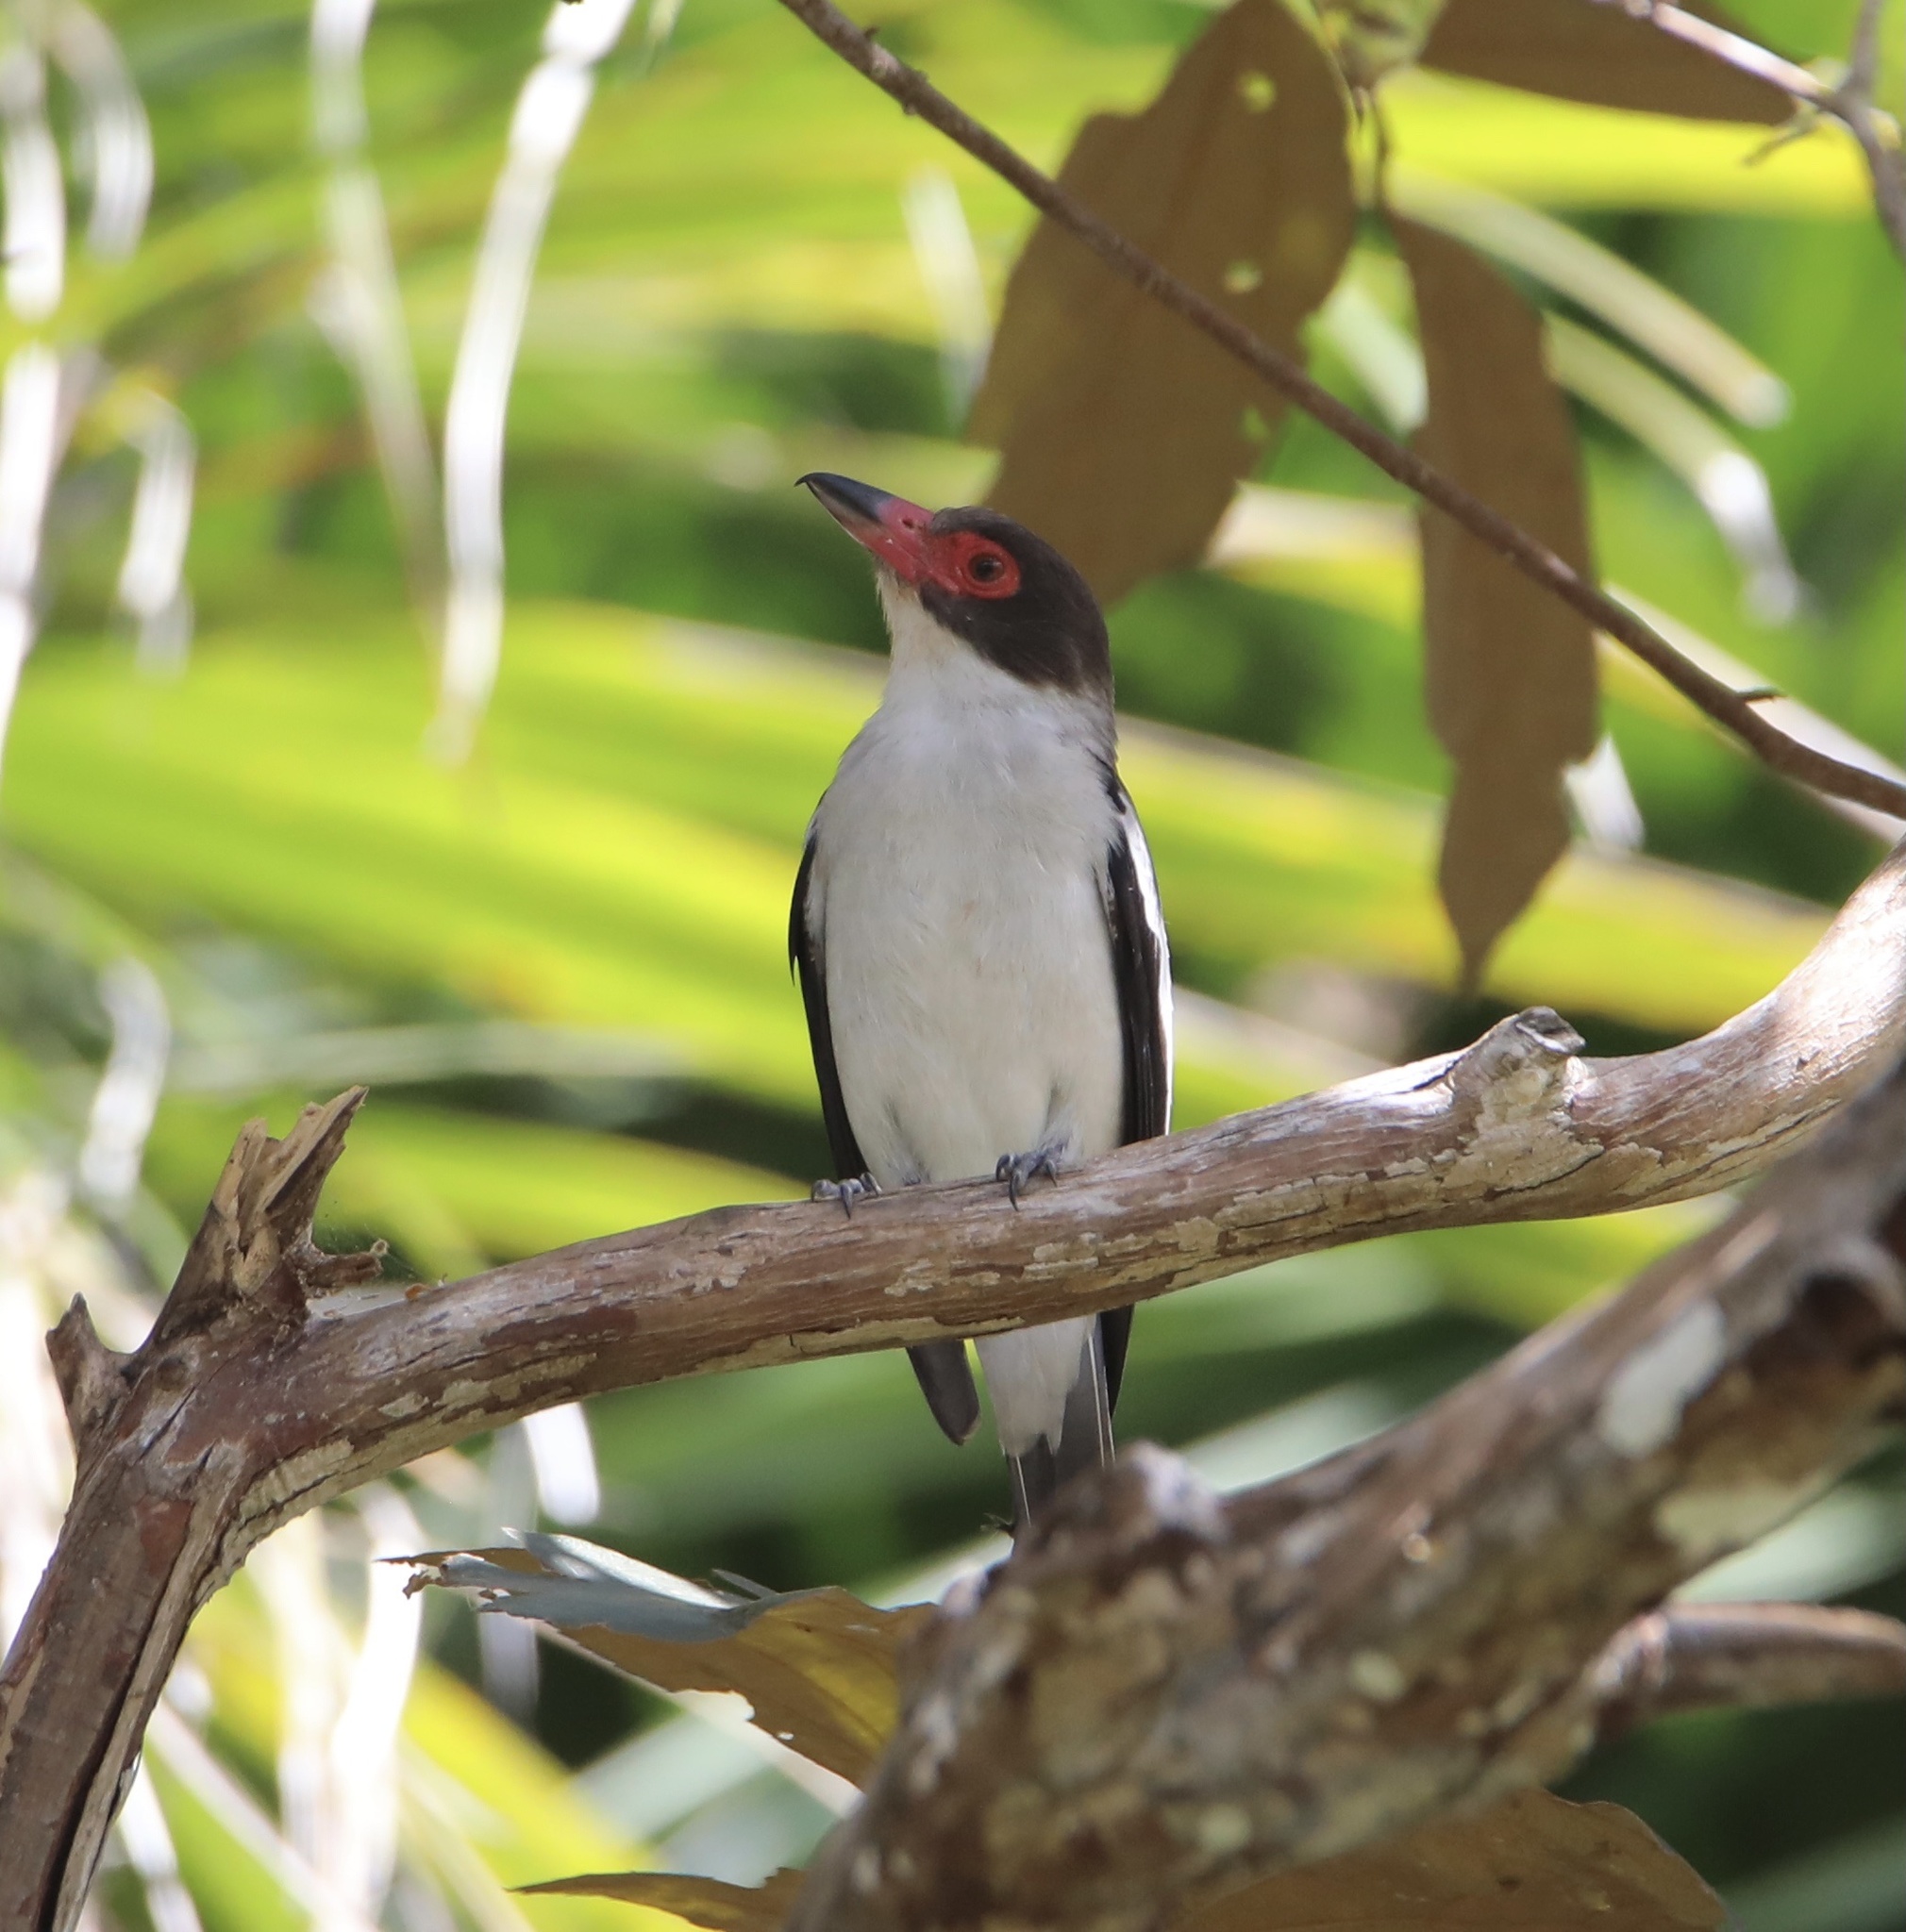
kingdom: Animalia
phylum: Chordata
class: Aves
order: Passeriformes
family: Cotingidae
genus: Tityra
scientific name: Tityra semifasciata
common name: Masked tityra
